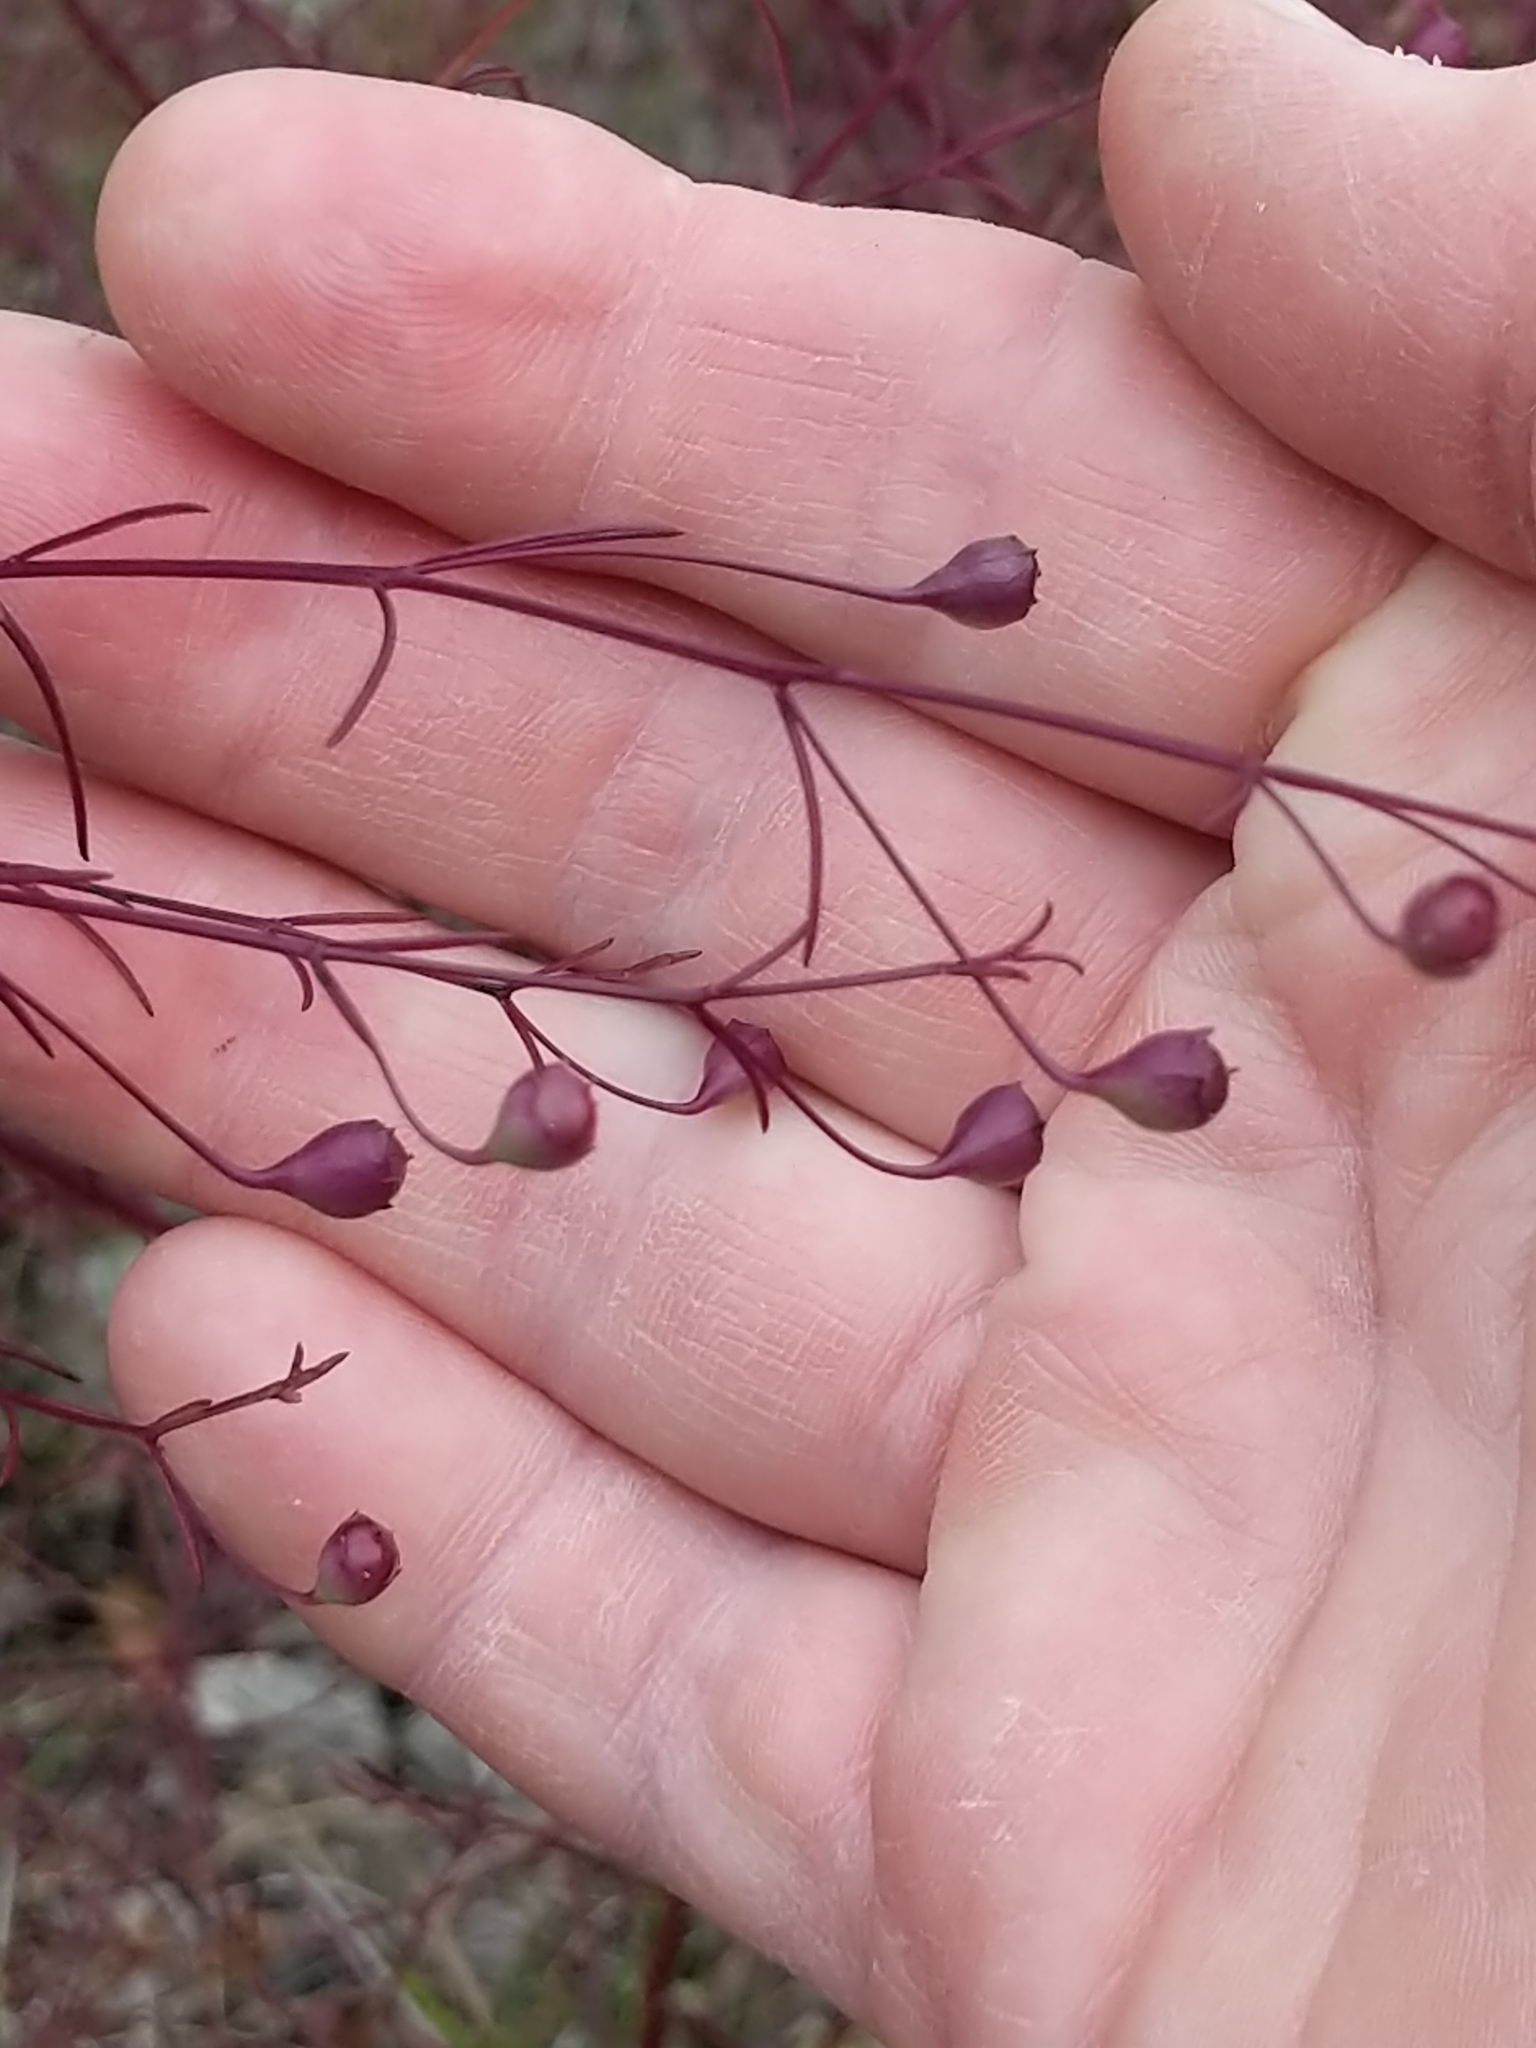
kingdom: Plantae
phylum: Tracheophyta
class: Magnoliopsida
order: Lamiales
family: Orobanchaceae
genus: Agalinis
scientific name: Agalinis edwardsiana
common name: Plateau-gerardia
